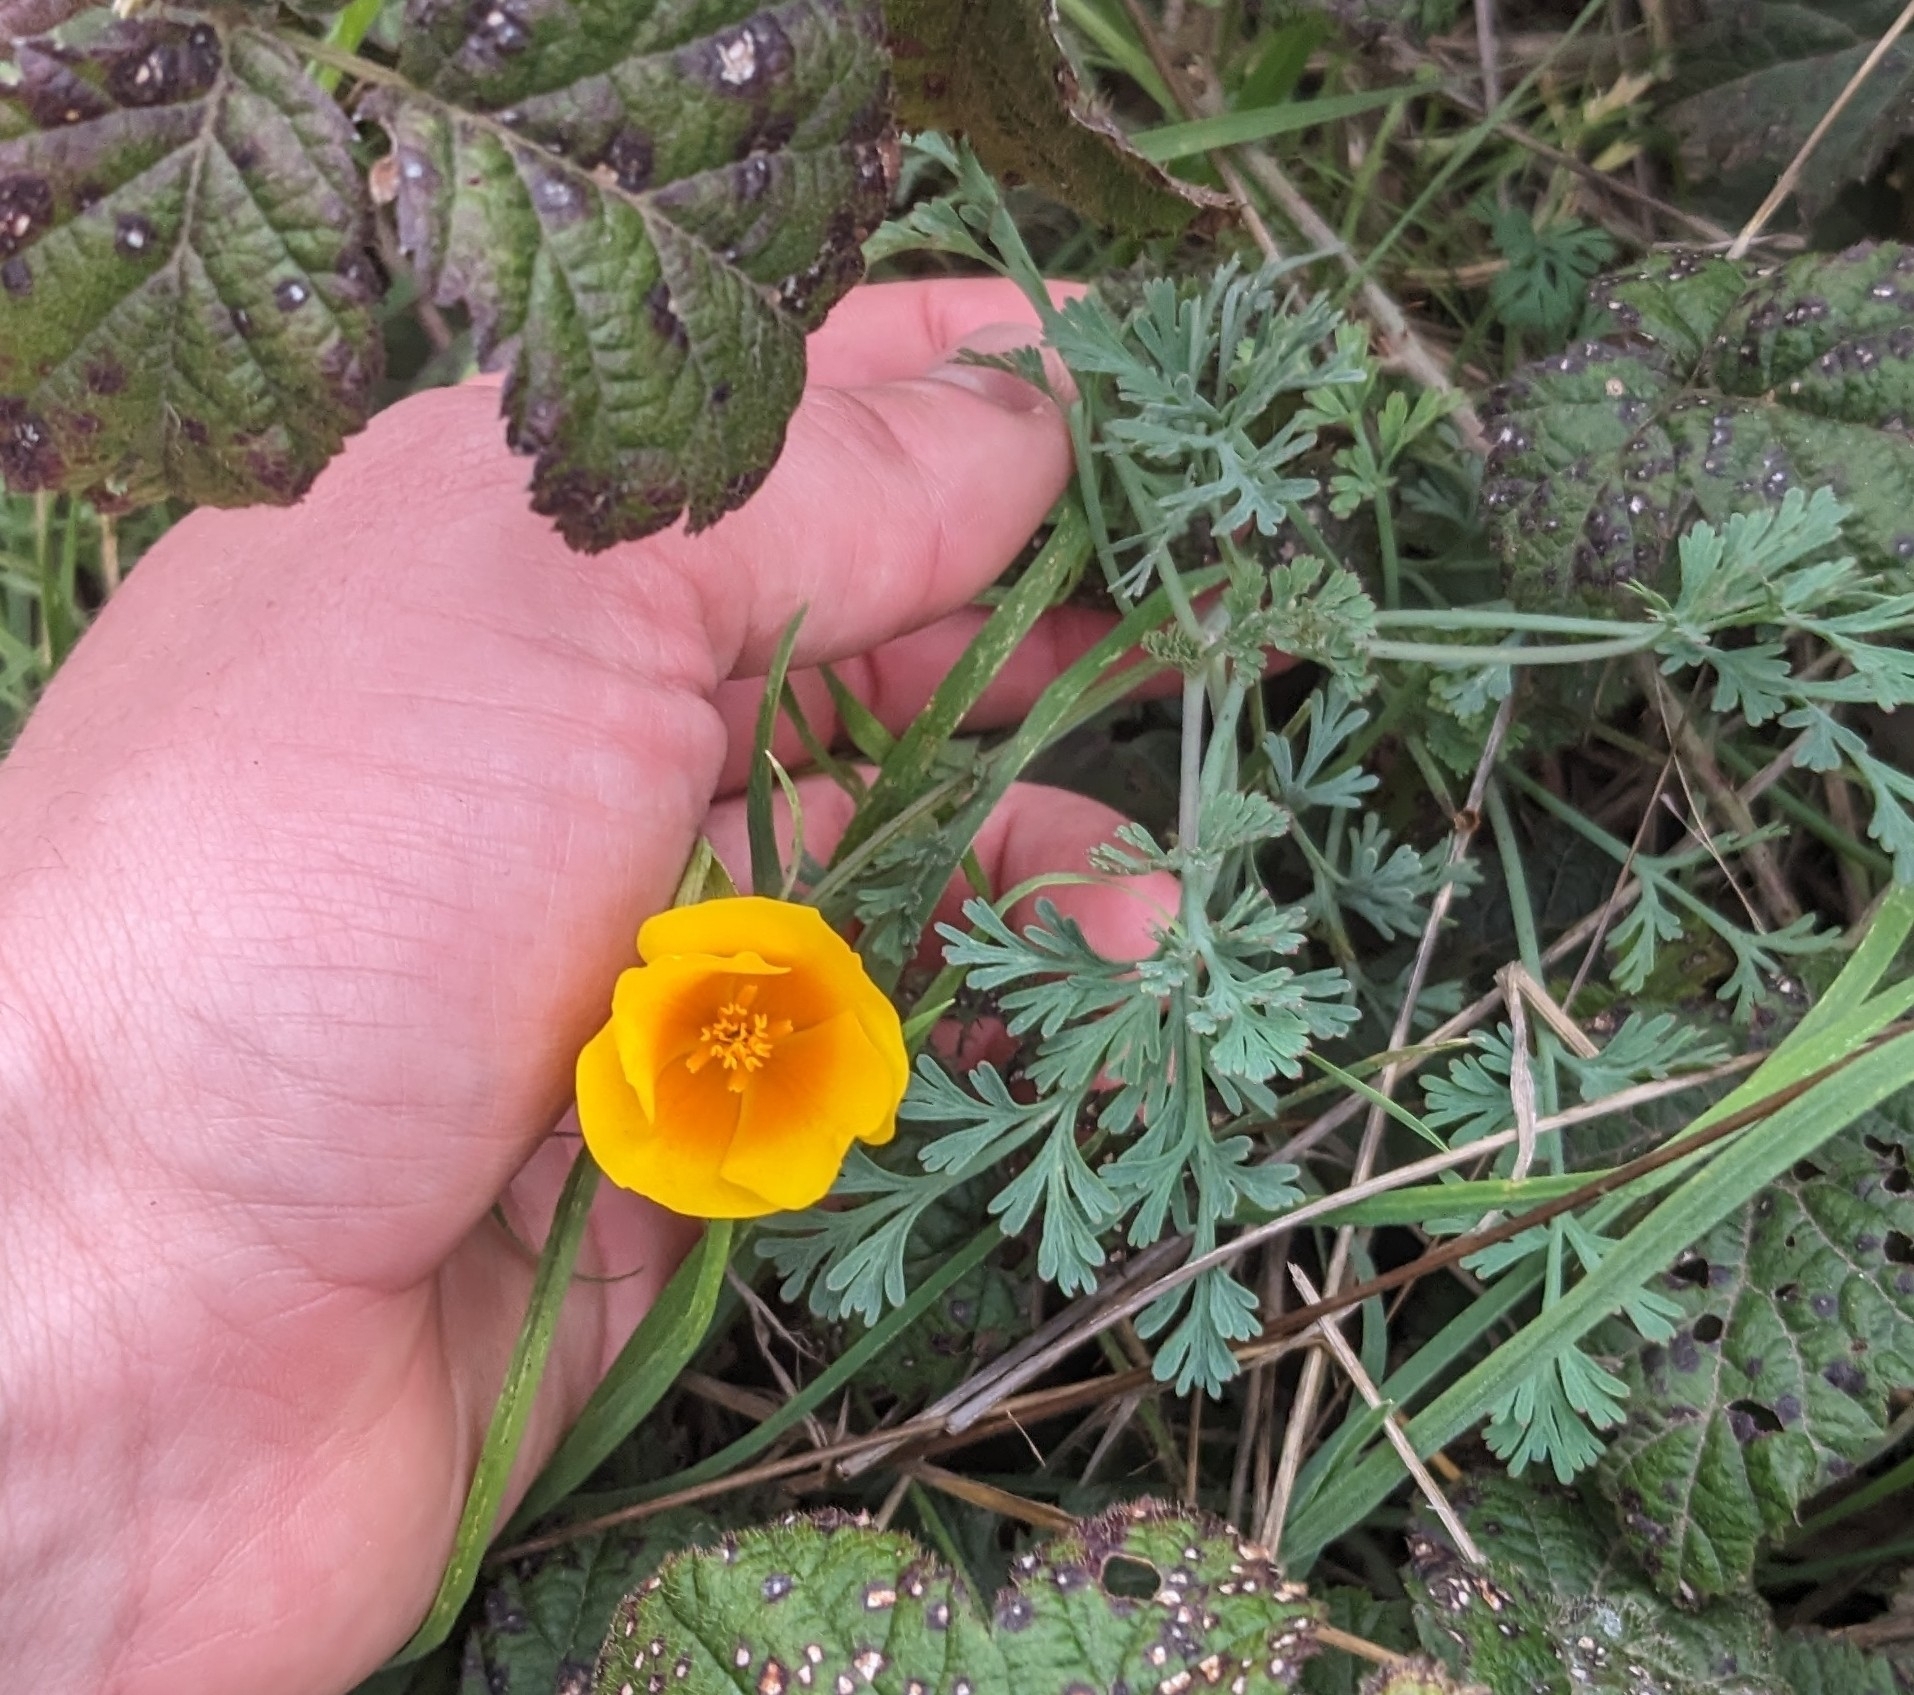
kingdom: Plantae
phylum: Tracheophyta
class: Magnoliopsida
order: Ranunculales
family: Papaveraceae
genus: Eschscholzia
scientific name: Eschscholzia californica
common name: California poppy
